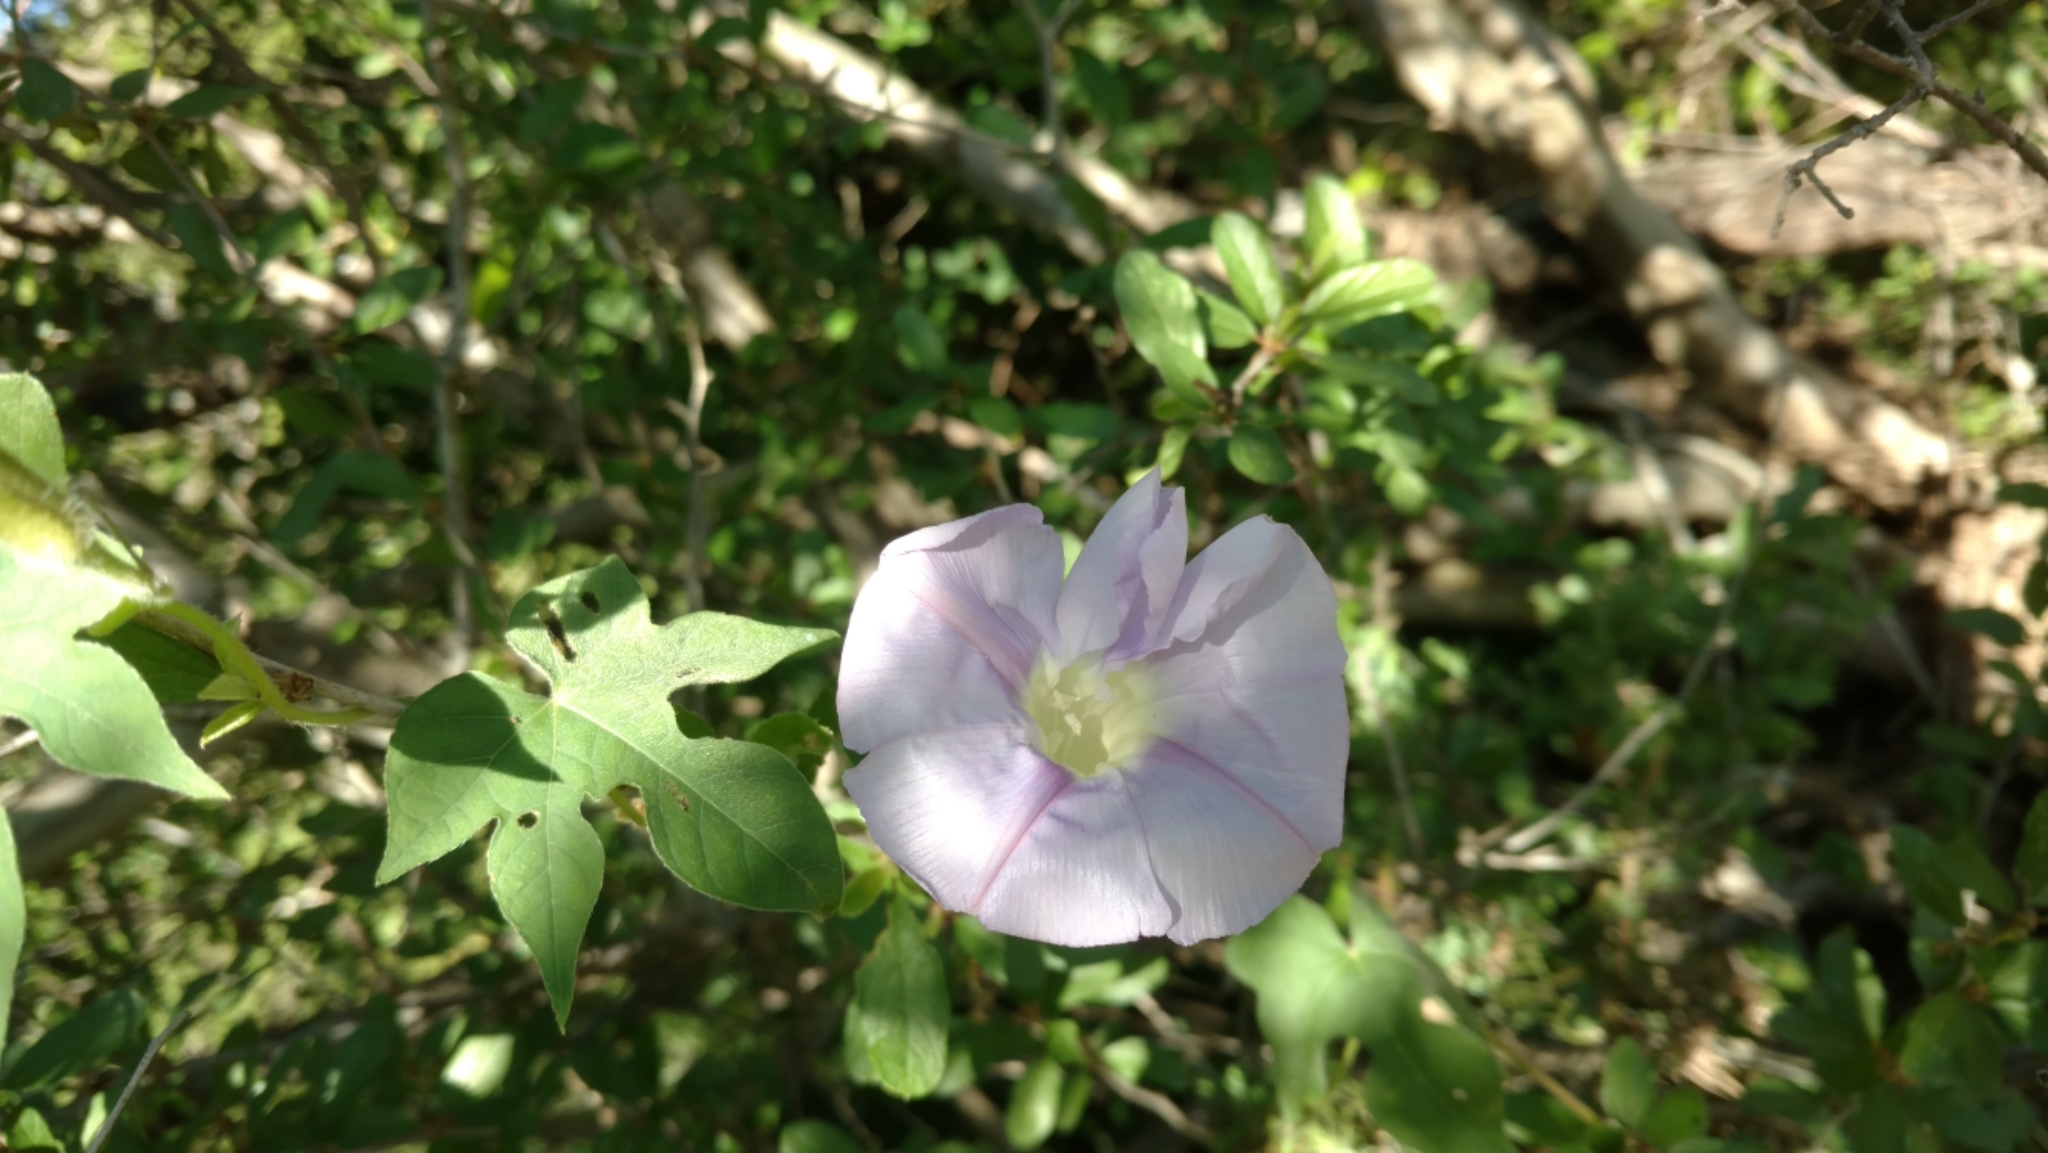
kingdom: Plantae
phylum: Tracheophyta
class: Magnoliopsida
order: Solanales
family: Convolvulaceae
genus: Ipomoea
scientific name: Ipomoea lindheimeri
